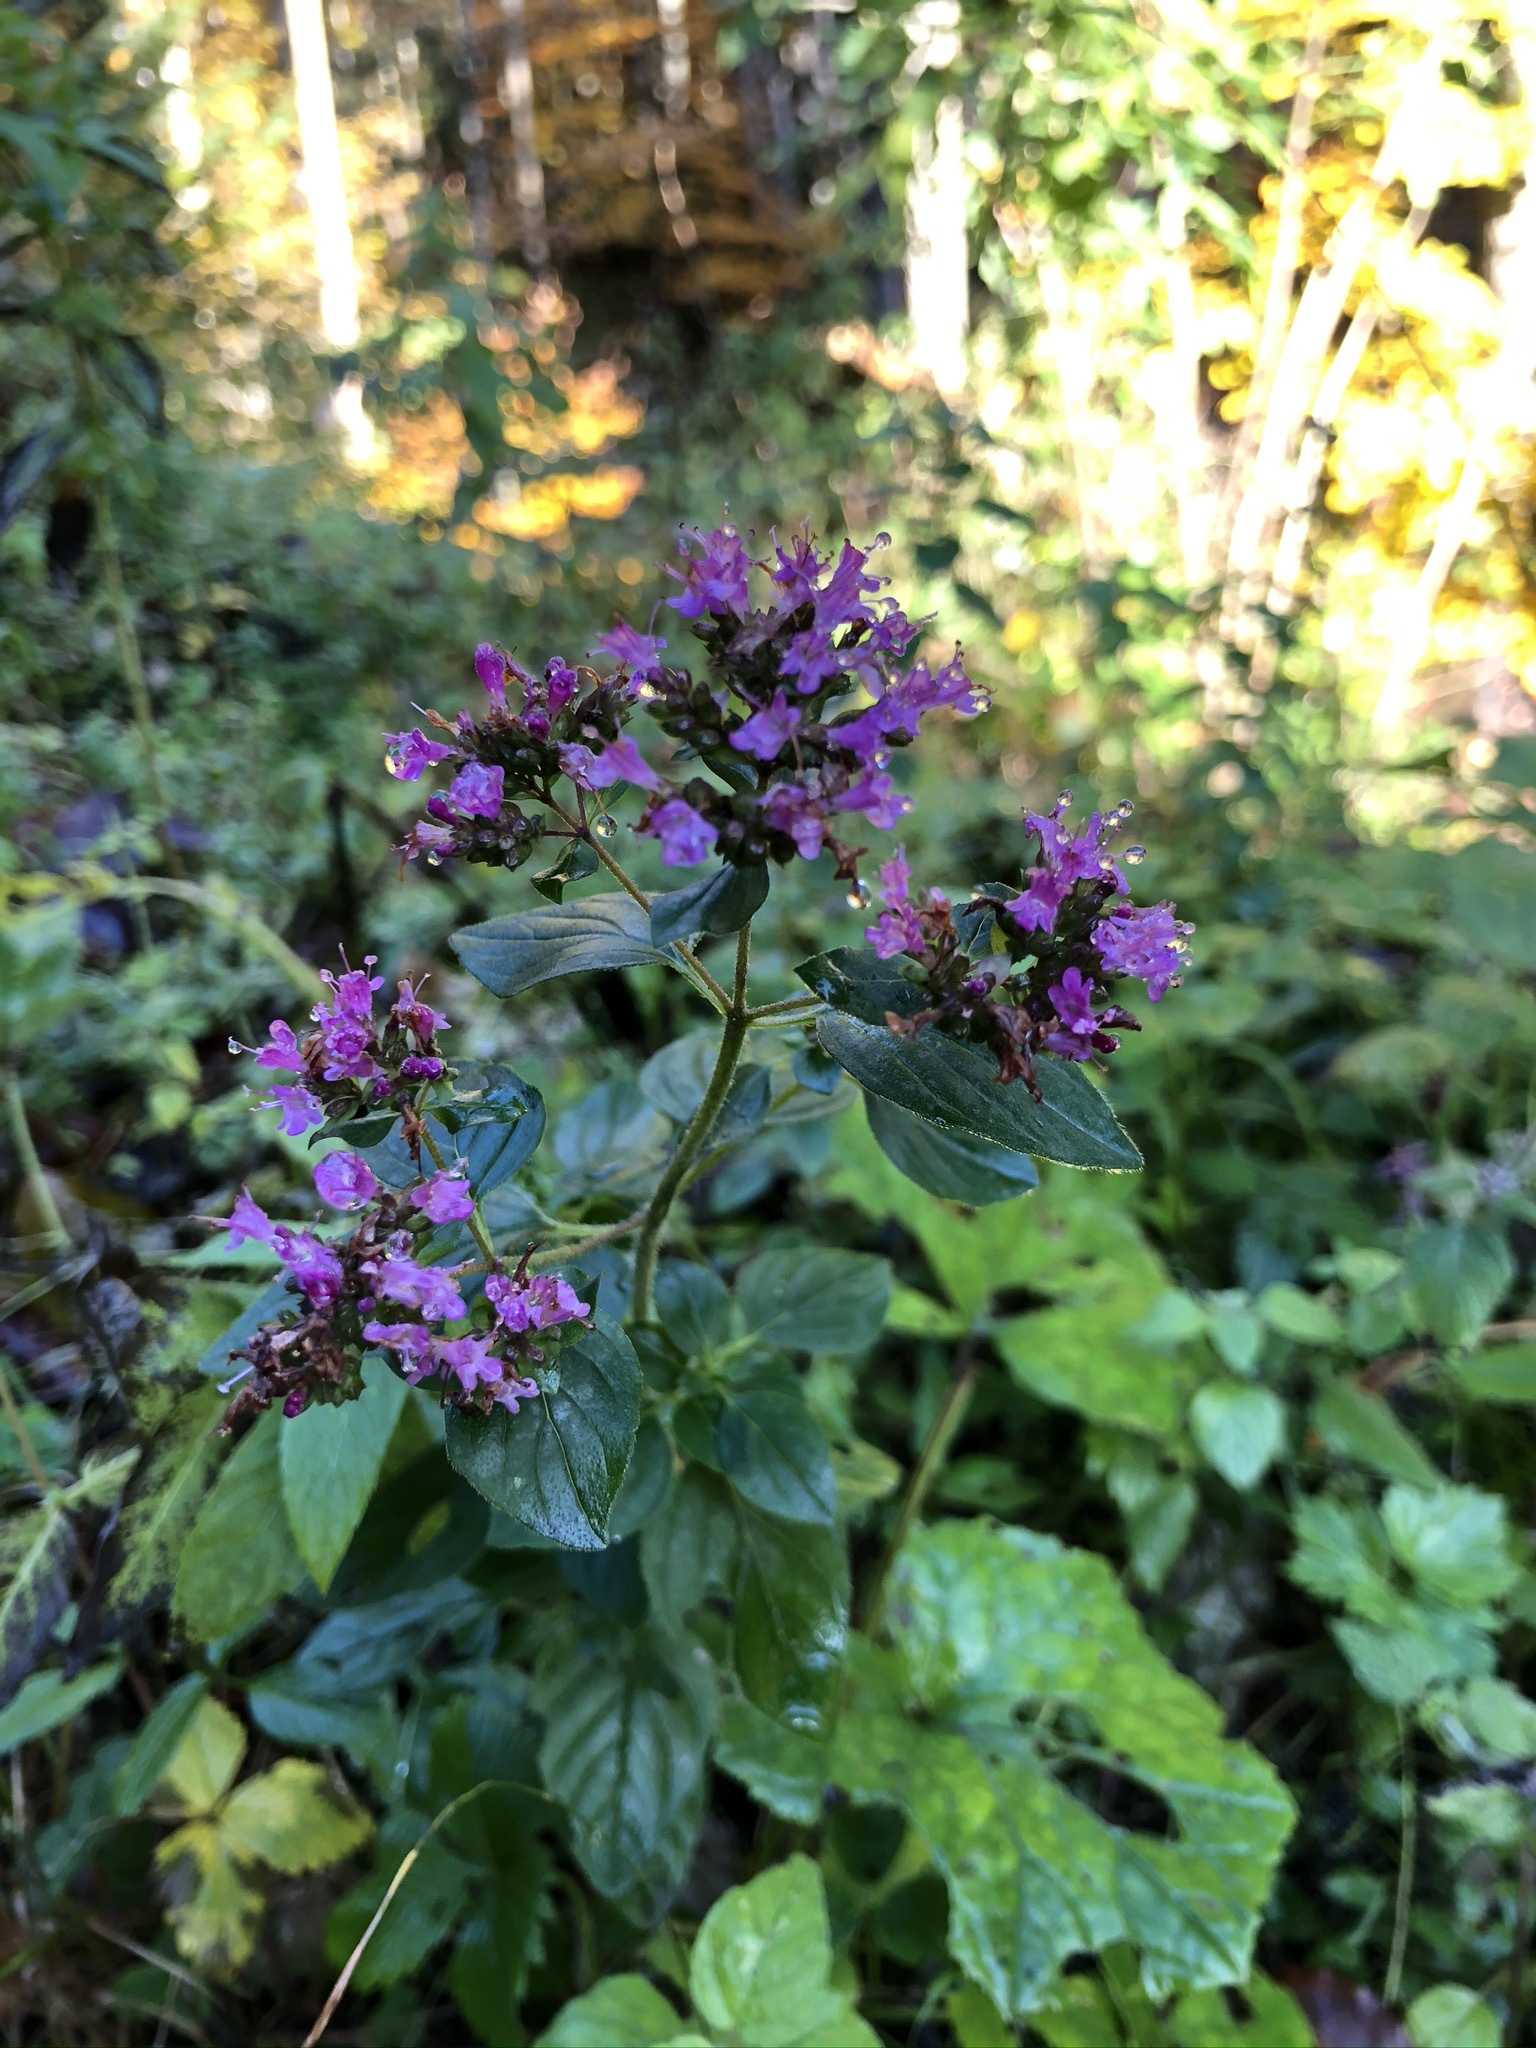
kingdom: Plantae
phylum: Tracheophyta
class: Magnoliopsida
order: Lamiales
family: Lamiaceae
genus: Origanum
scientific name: Origanum vulgare
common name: Wild marjoram
